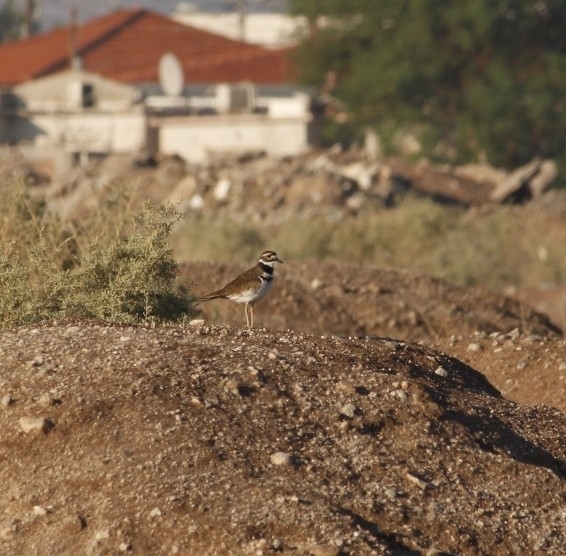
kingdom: Animalia
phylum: Chordata
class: Aves
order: Charadriiformes
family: Charadriidae
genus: Charadrius
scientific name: Charadrius vociferus
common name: Killdeer
